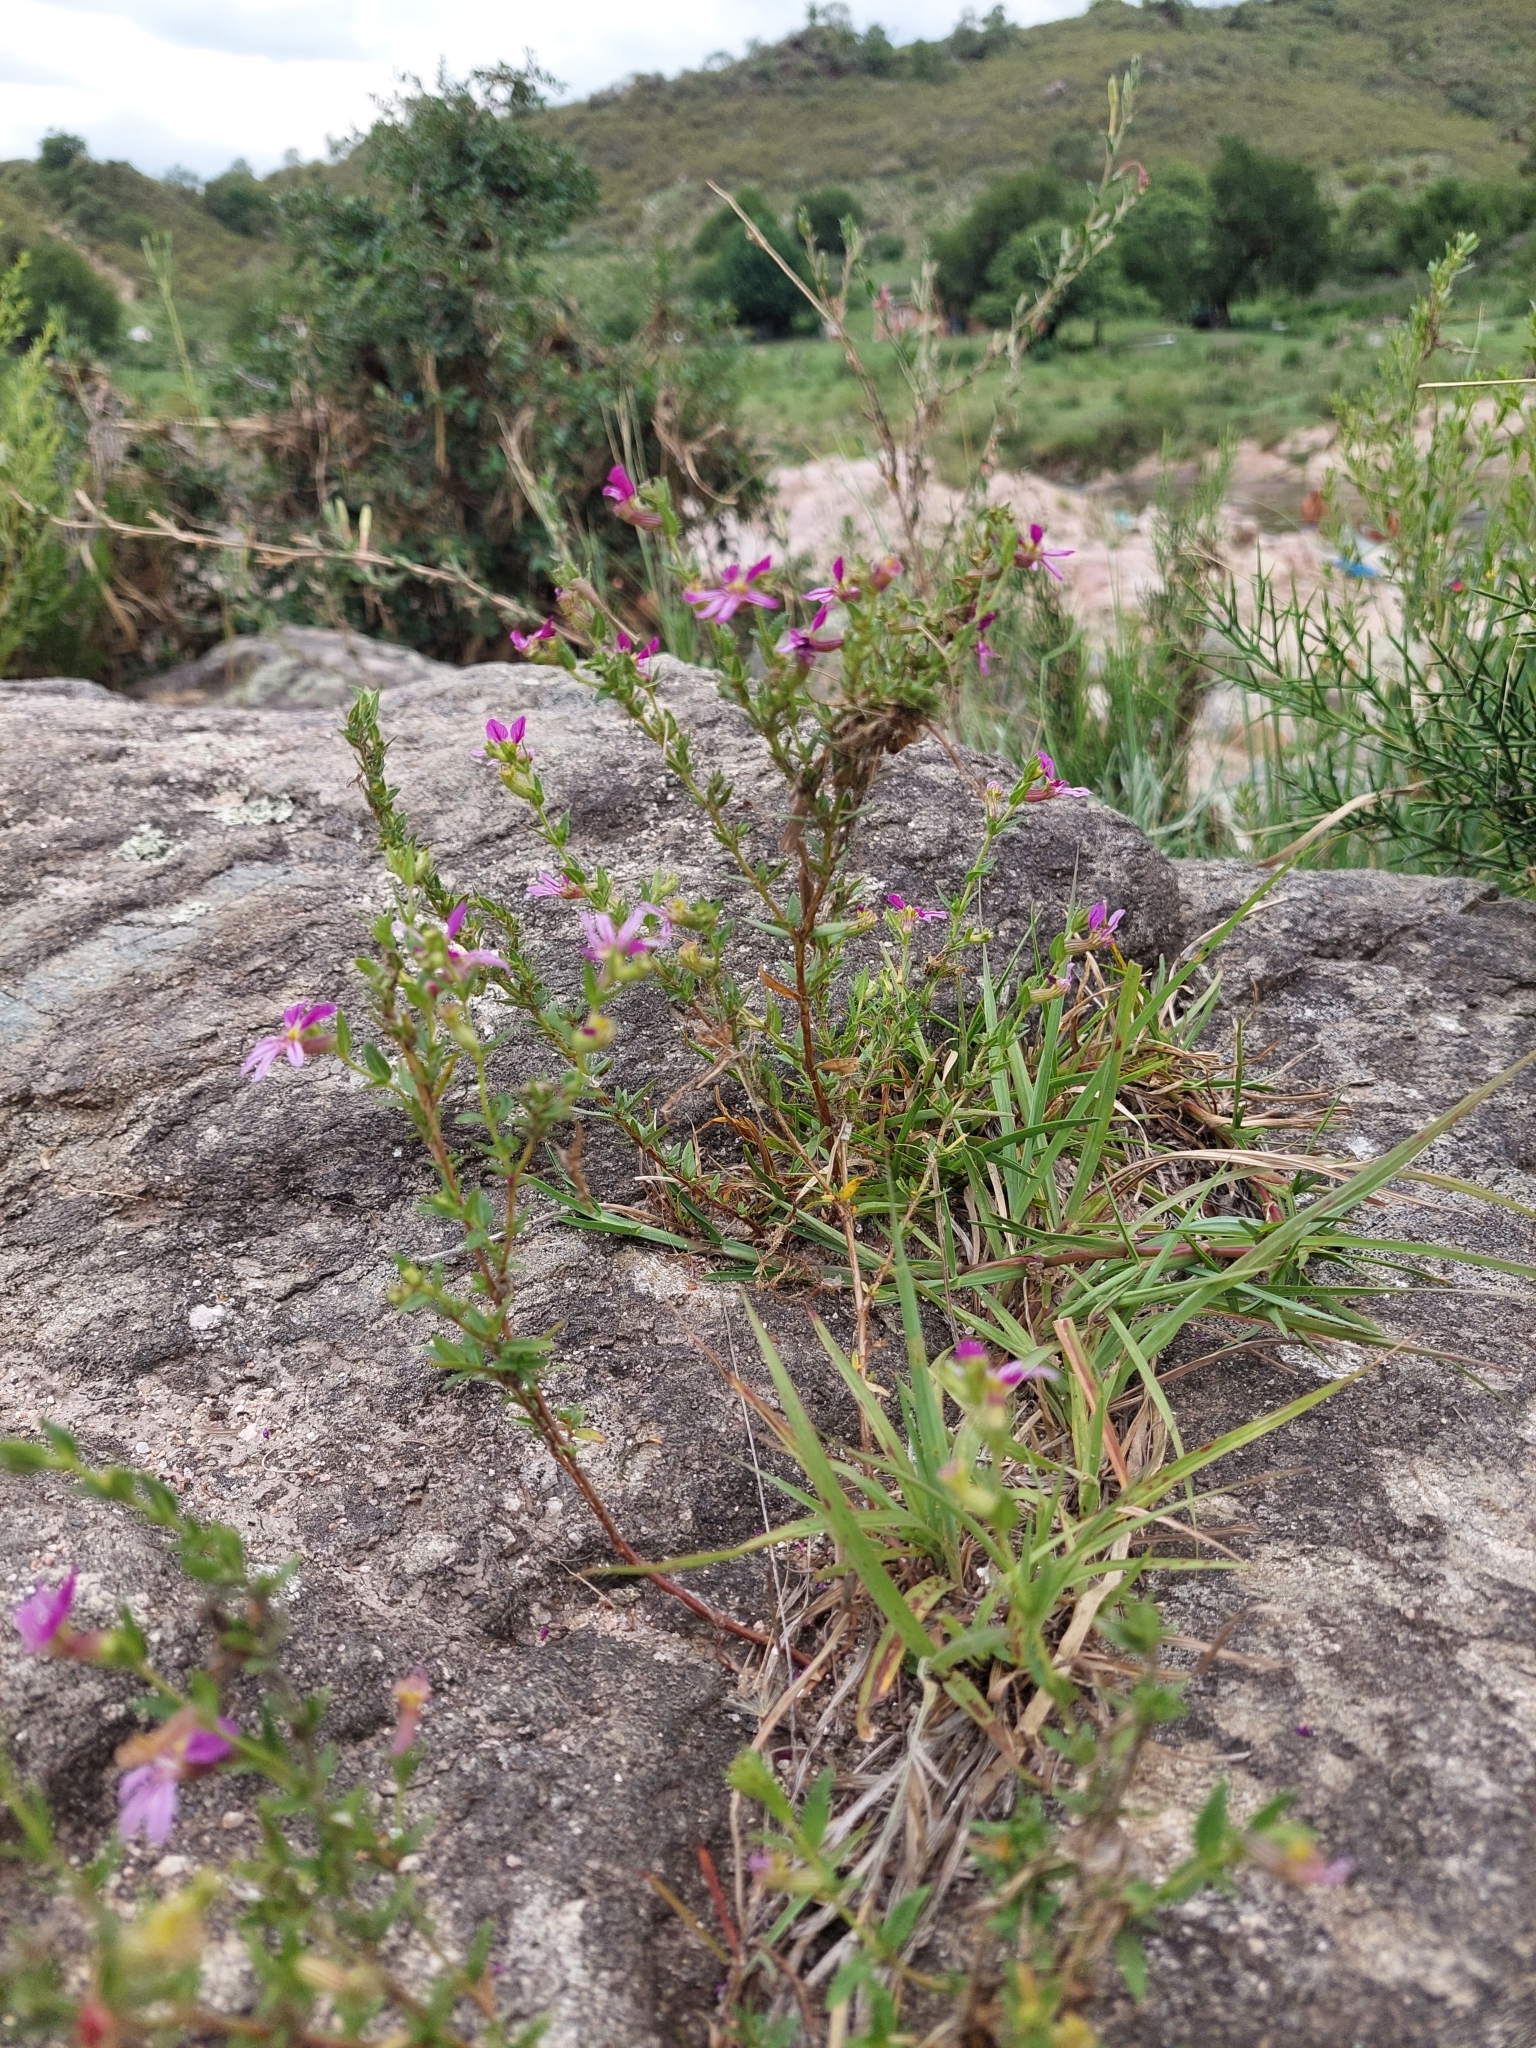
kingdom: Plantae
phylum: Tracheophyta
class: Magnoliopsida
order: Myrtales
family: Lythraceae
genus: Cuphea
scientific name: Cuphea glutinosa
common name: Sticky waxweed
